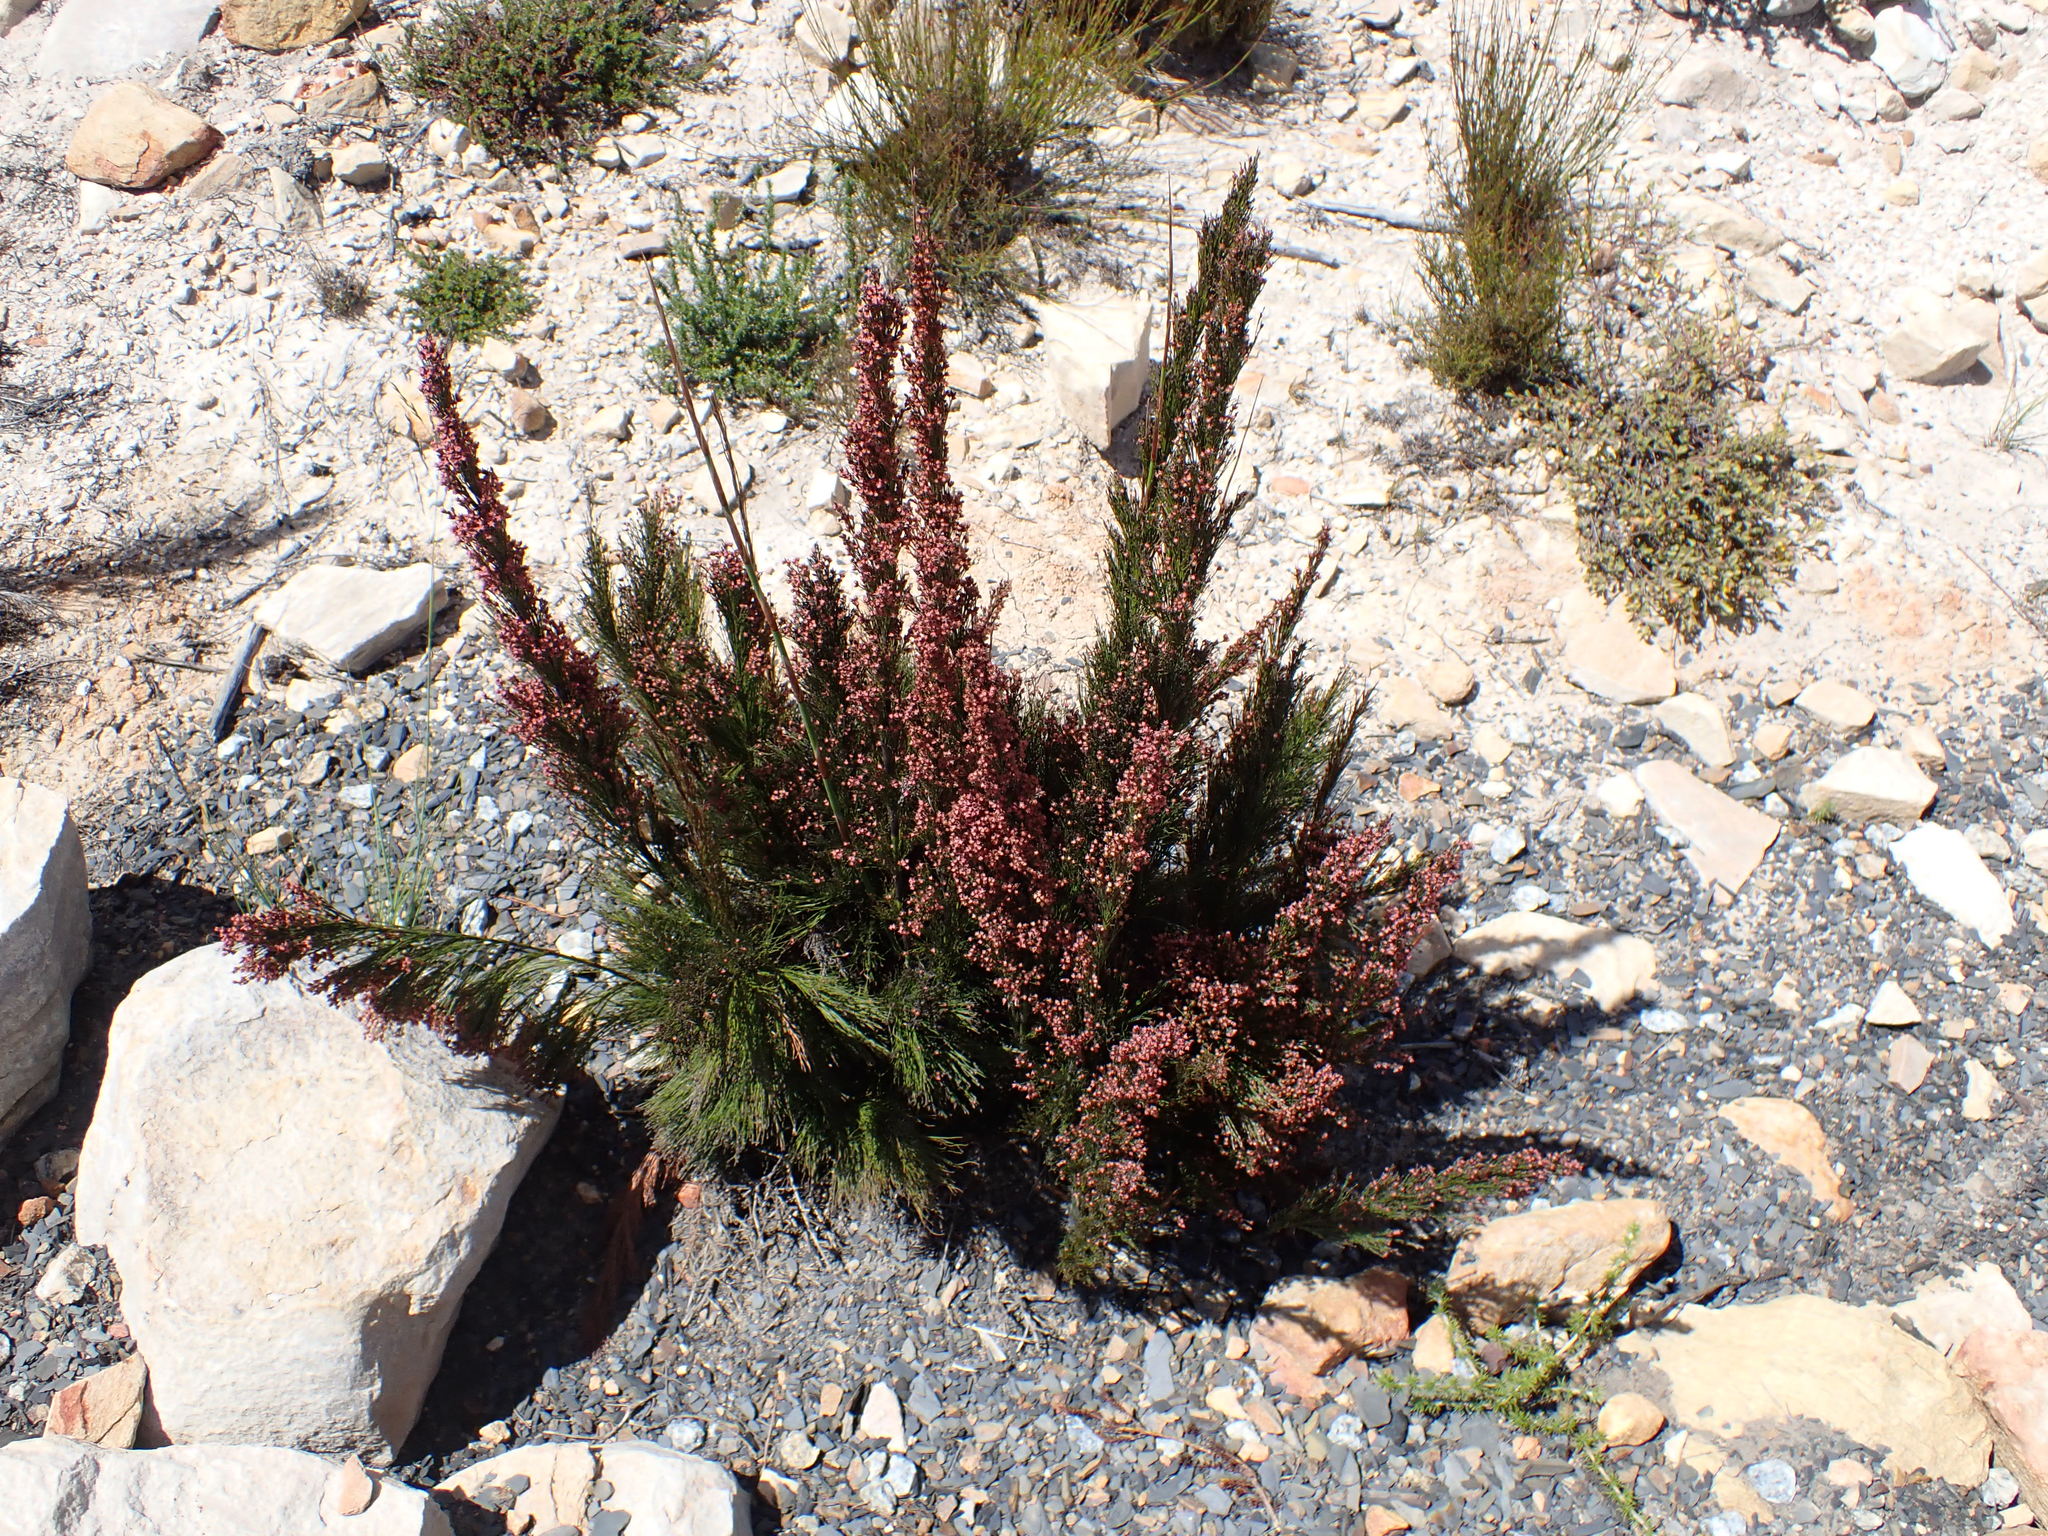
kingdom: Plantae
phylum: Tracheophyta
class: Liliopsida
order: Poales
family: Restionaceae
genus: Rhodocoma
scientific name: Rhodocoma capensis
